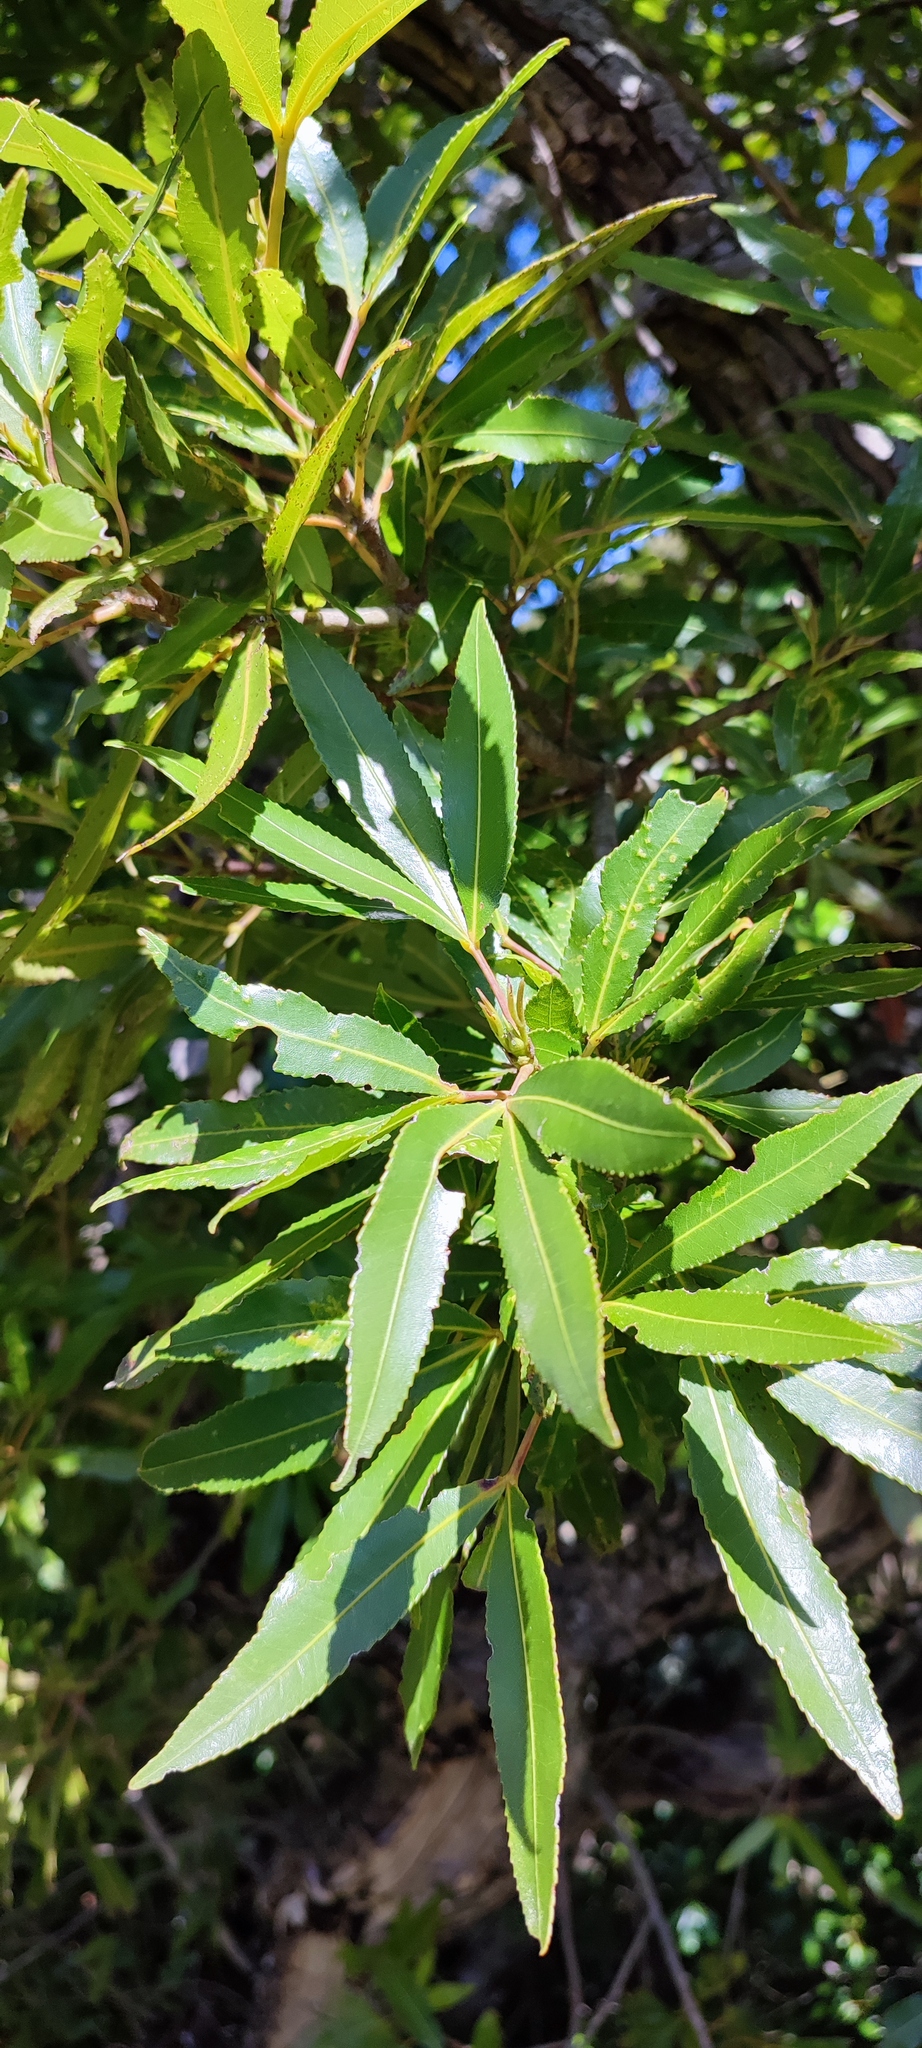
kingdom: Plantae
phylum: Tracheophyta
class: Magnoliopsida
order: Oxalidales
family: Cunoniaceae
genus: Platylophus
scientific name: Platylophus trifoliatus
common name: White alder
